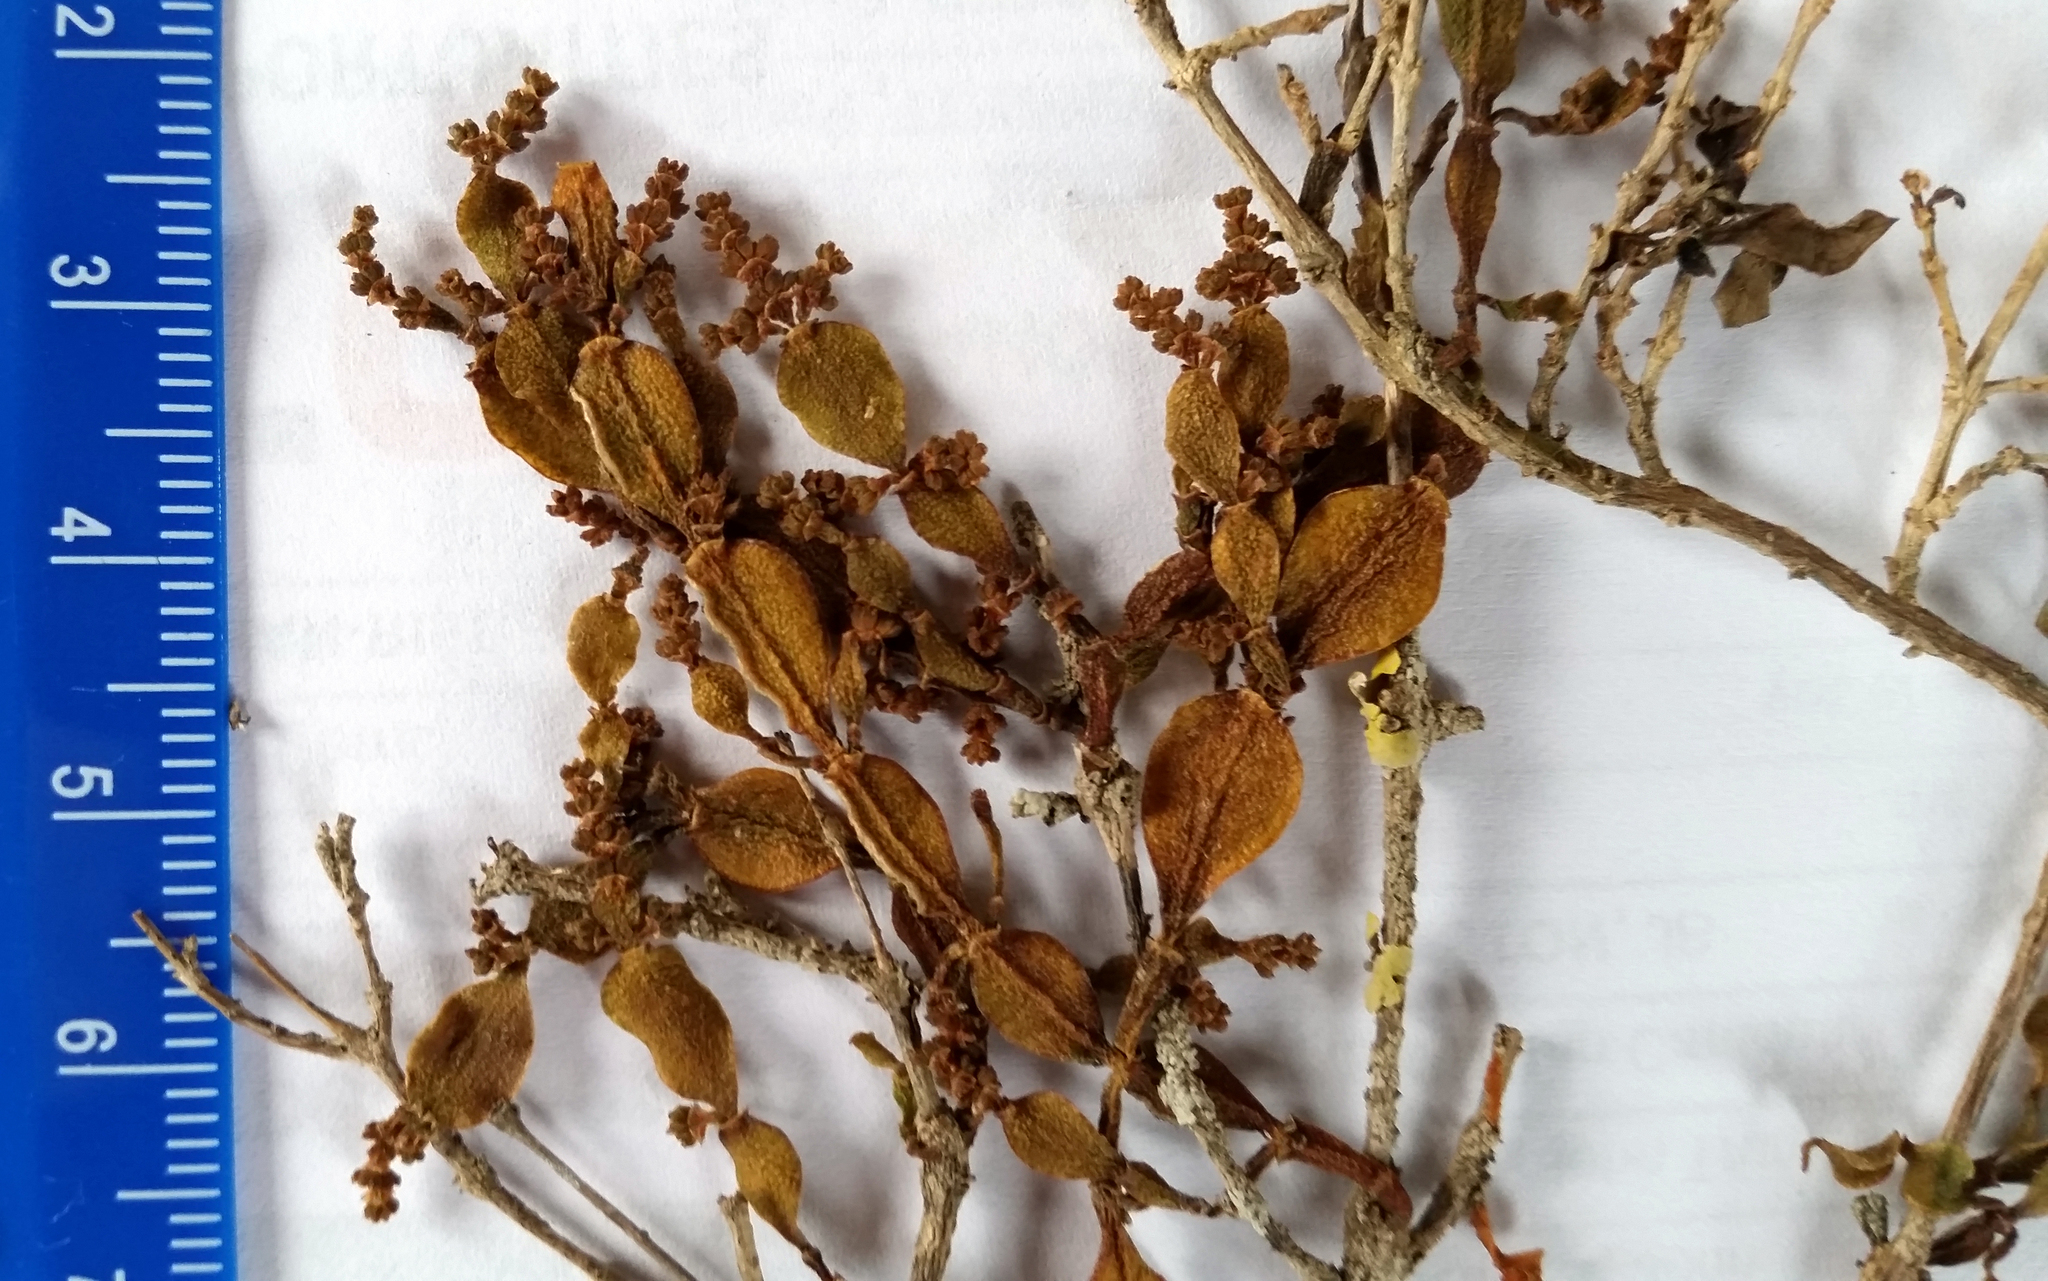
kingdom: Plantae
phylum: Tracheophyta
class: Magnoliopsida
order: Santalales
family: Viscaceae
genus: Korthalsella
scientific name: Korthalsella lindsayi
